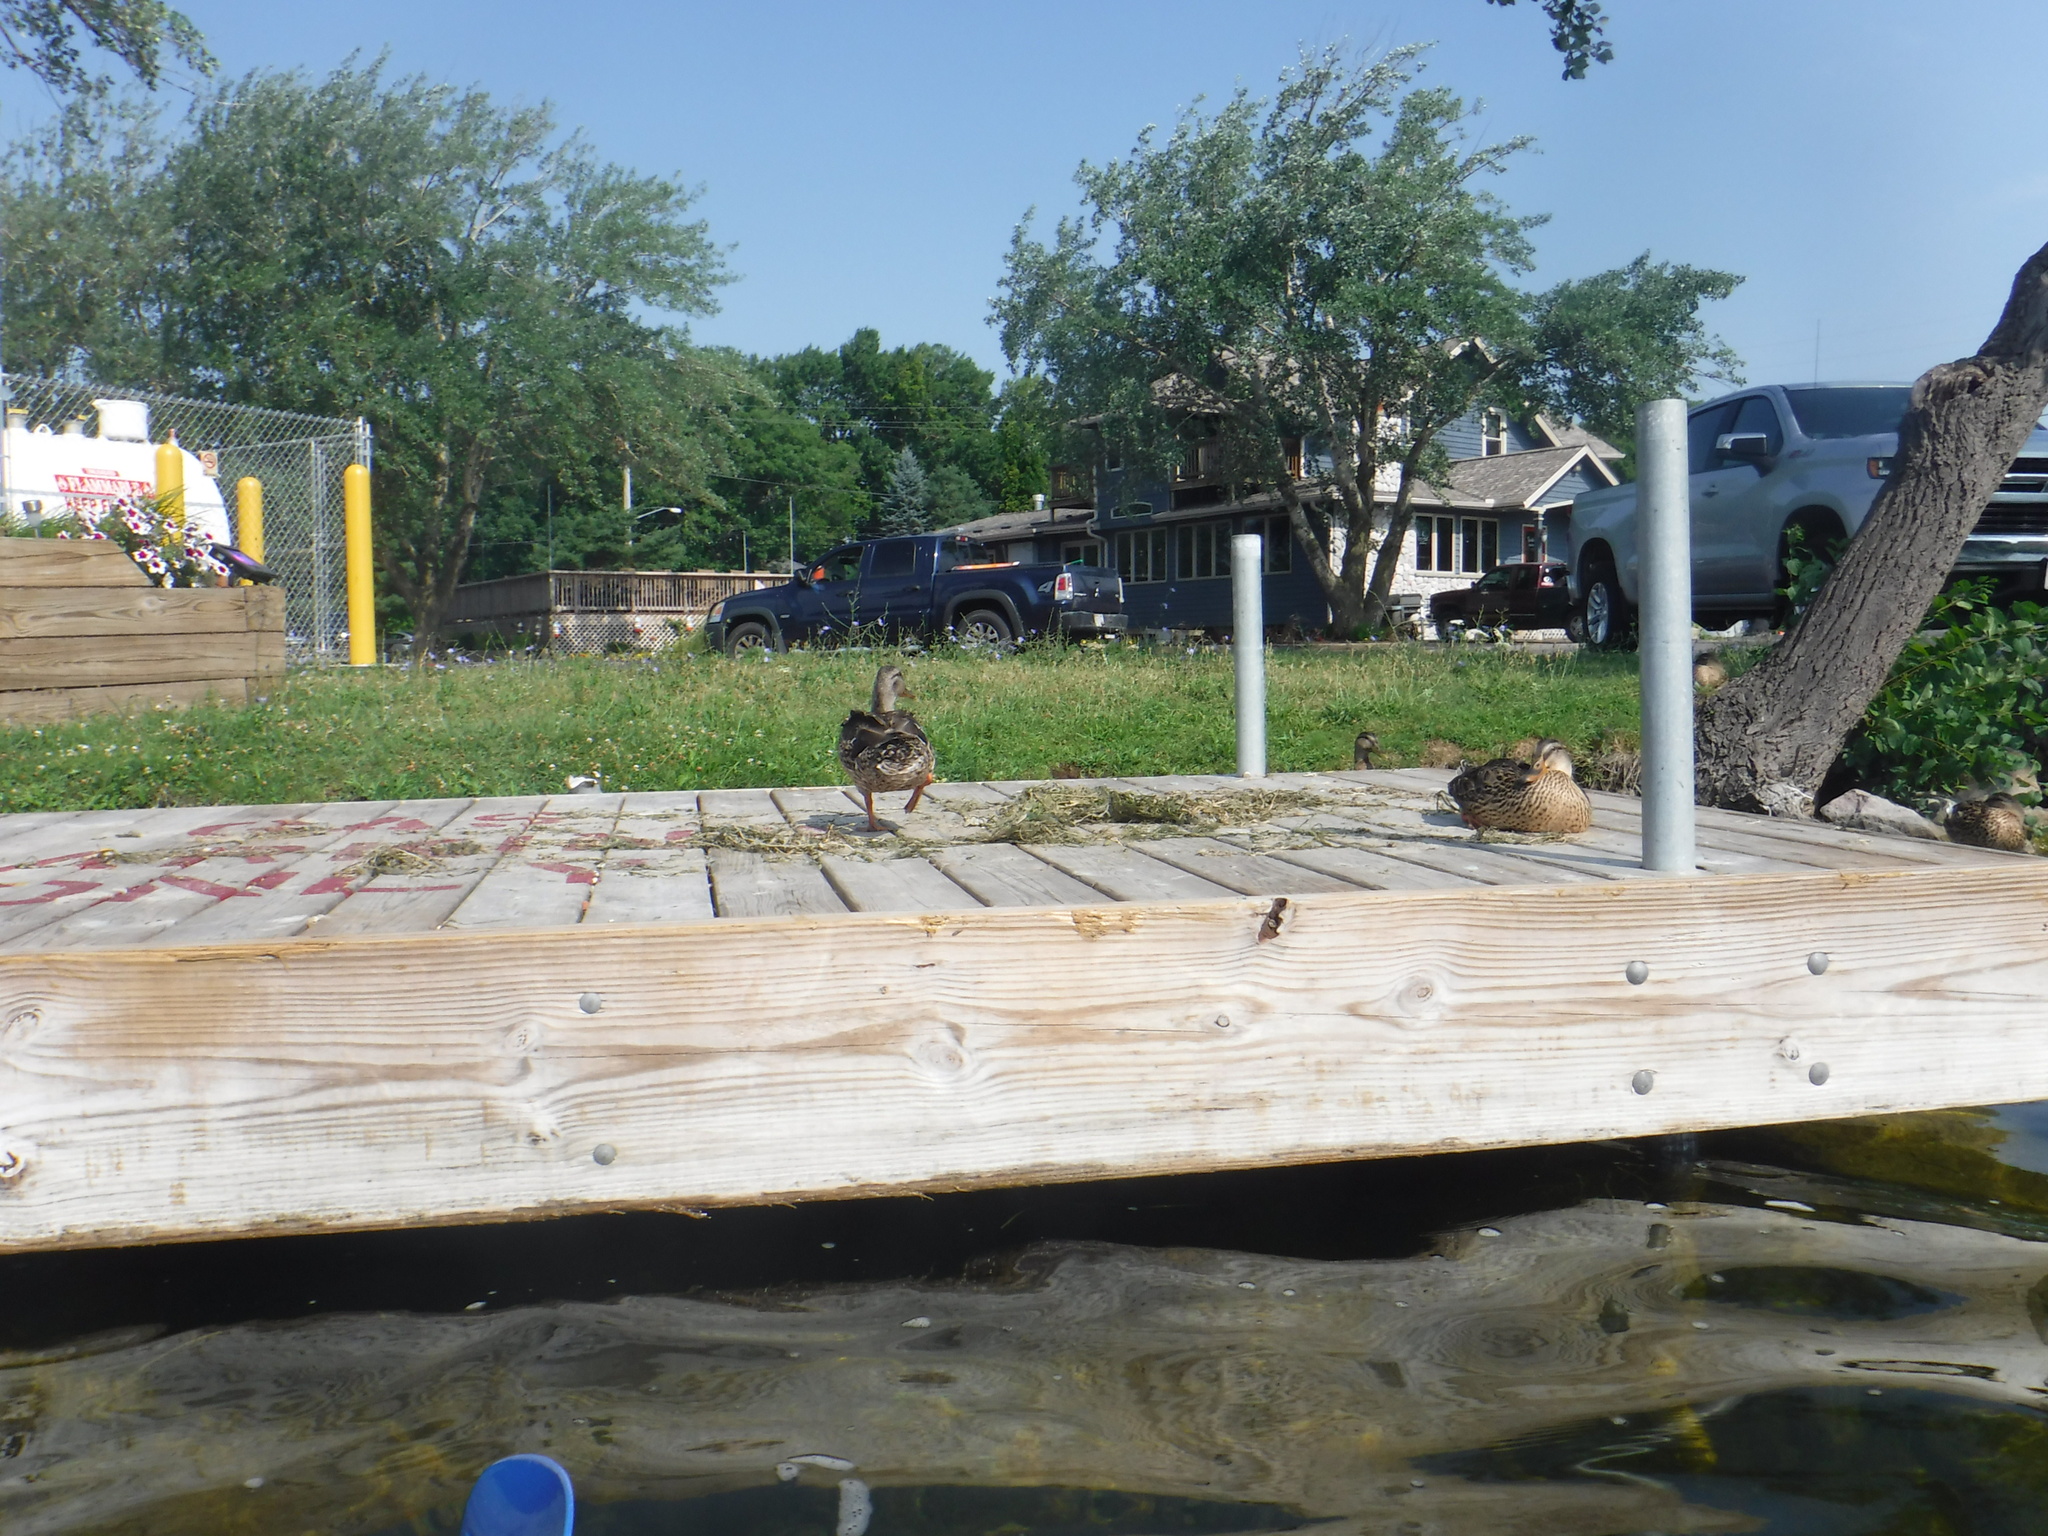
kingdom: Animalia
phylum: Chordata
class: Aves
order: Anseriformes
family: Anatidae
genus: Anas
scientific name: Anas platyrhynchos
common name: Mallard
